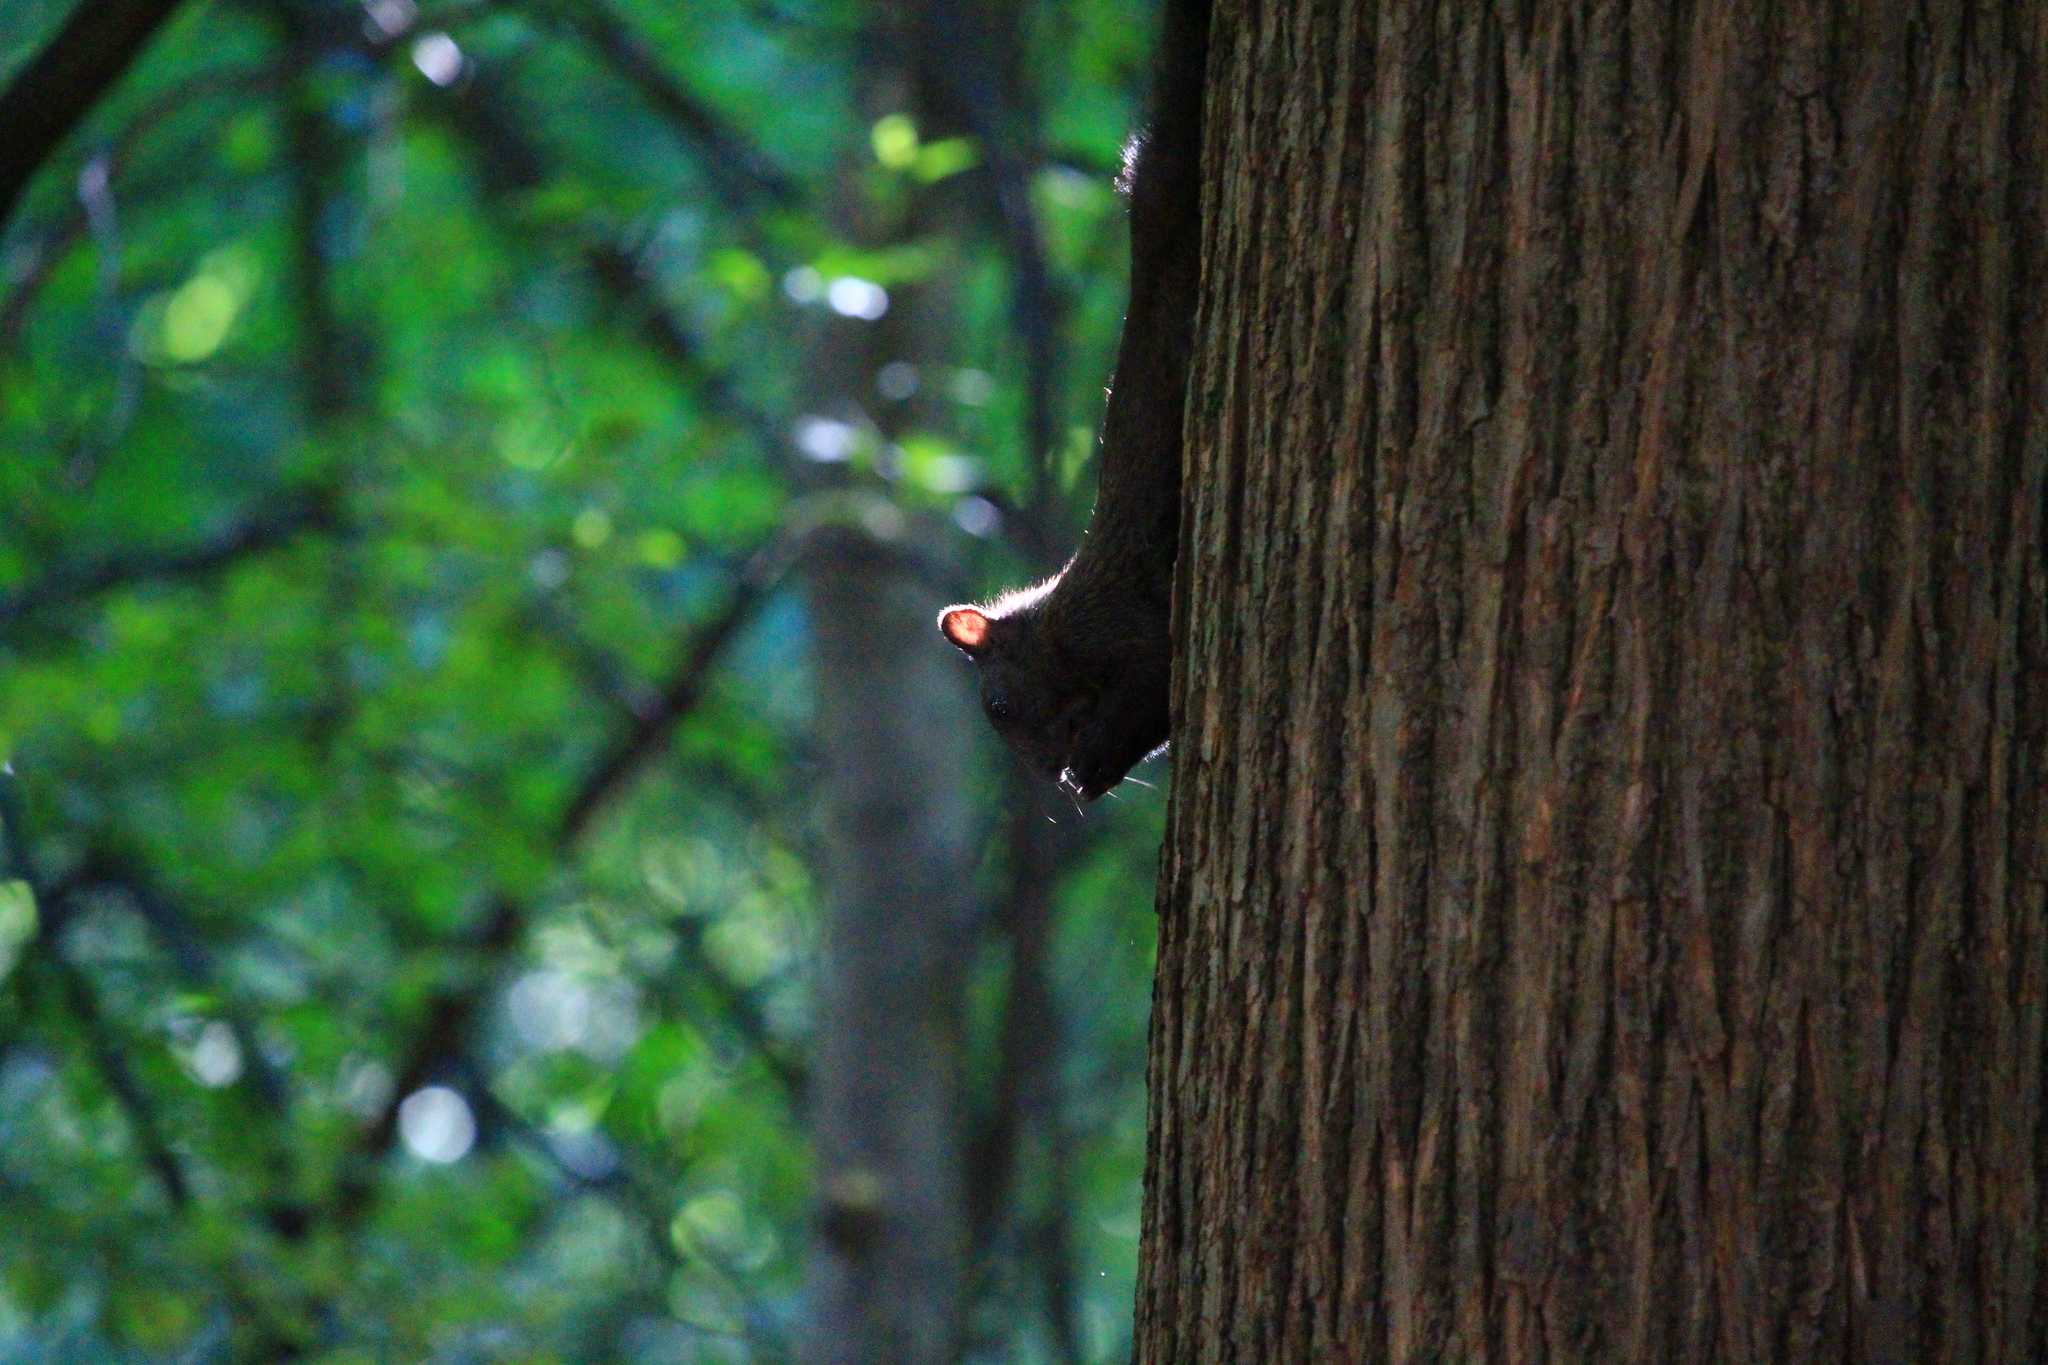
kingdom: Animalia
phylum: Chordata
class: Mammalia
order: Rodentia
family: Sciuridae
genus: Sciurus
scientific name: Sciurus vulgaris
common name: Eurasian red squirrel
